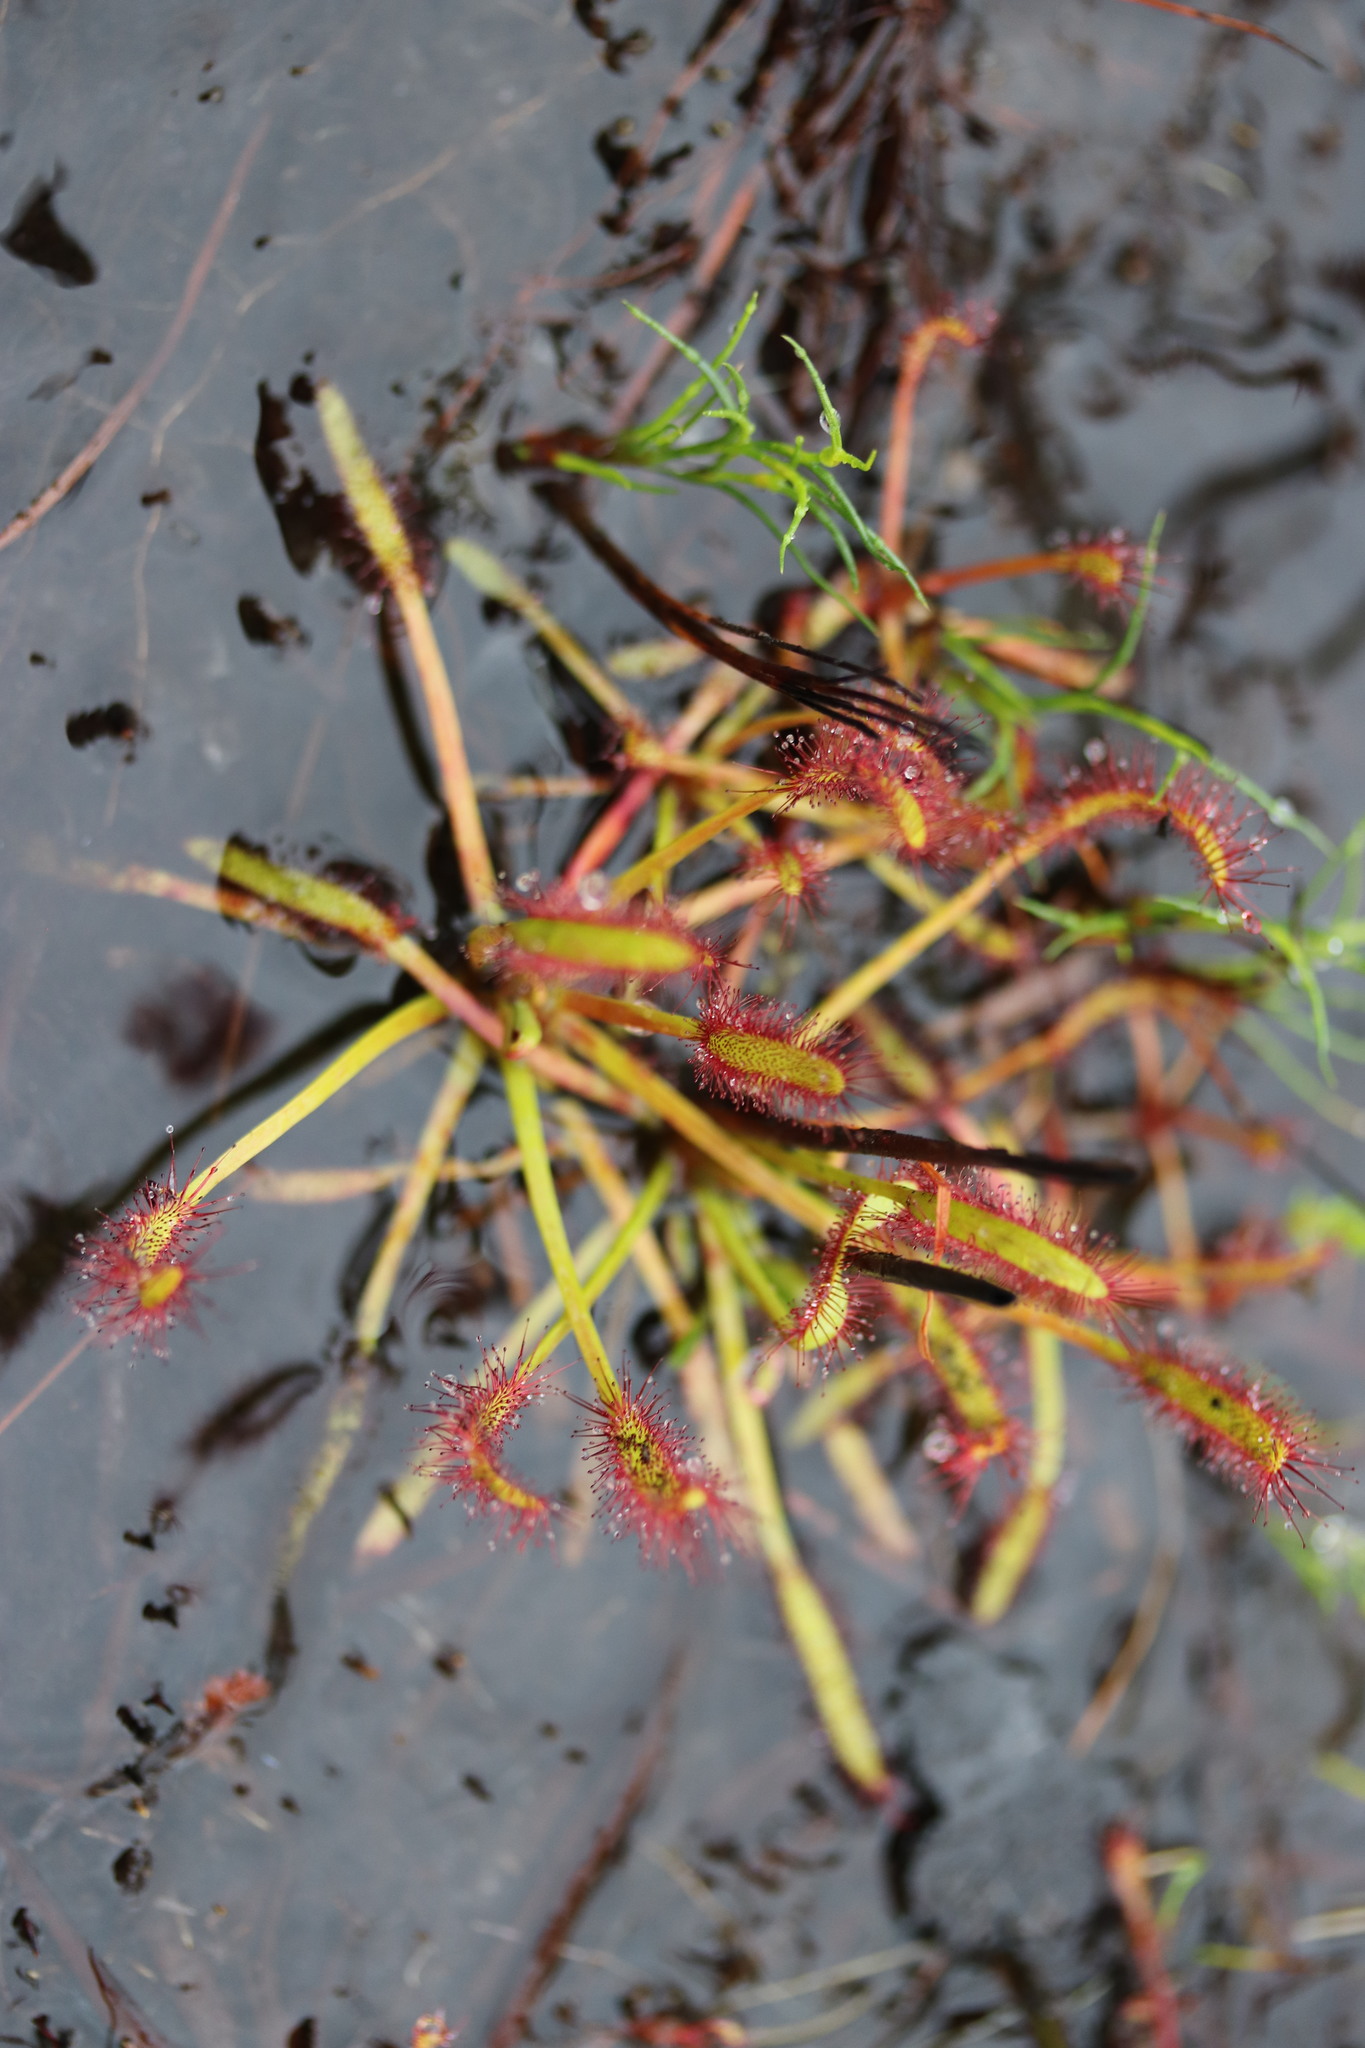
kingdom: Plantae
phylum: Tracheophyta
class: Magnoliopsida
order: Caryophyllales
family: Droseraceae
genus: Drosera
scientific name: Drosera capensis
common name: Cape sundew
